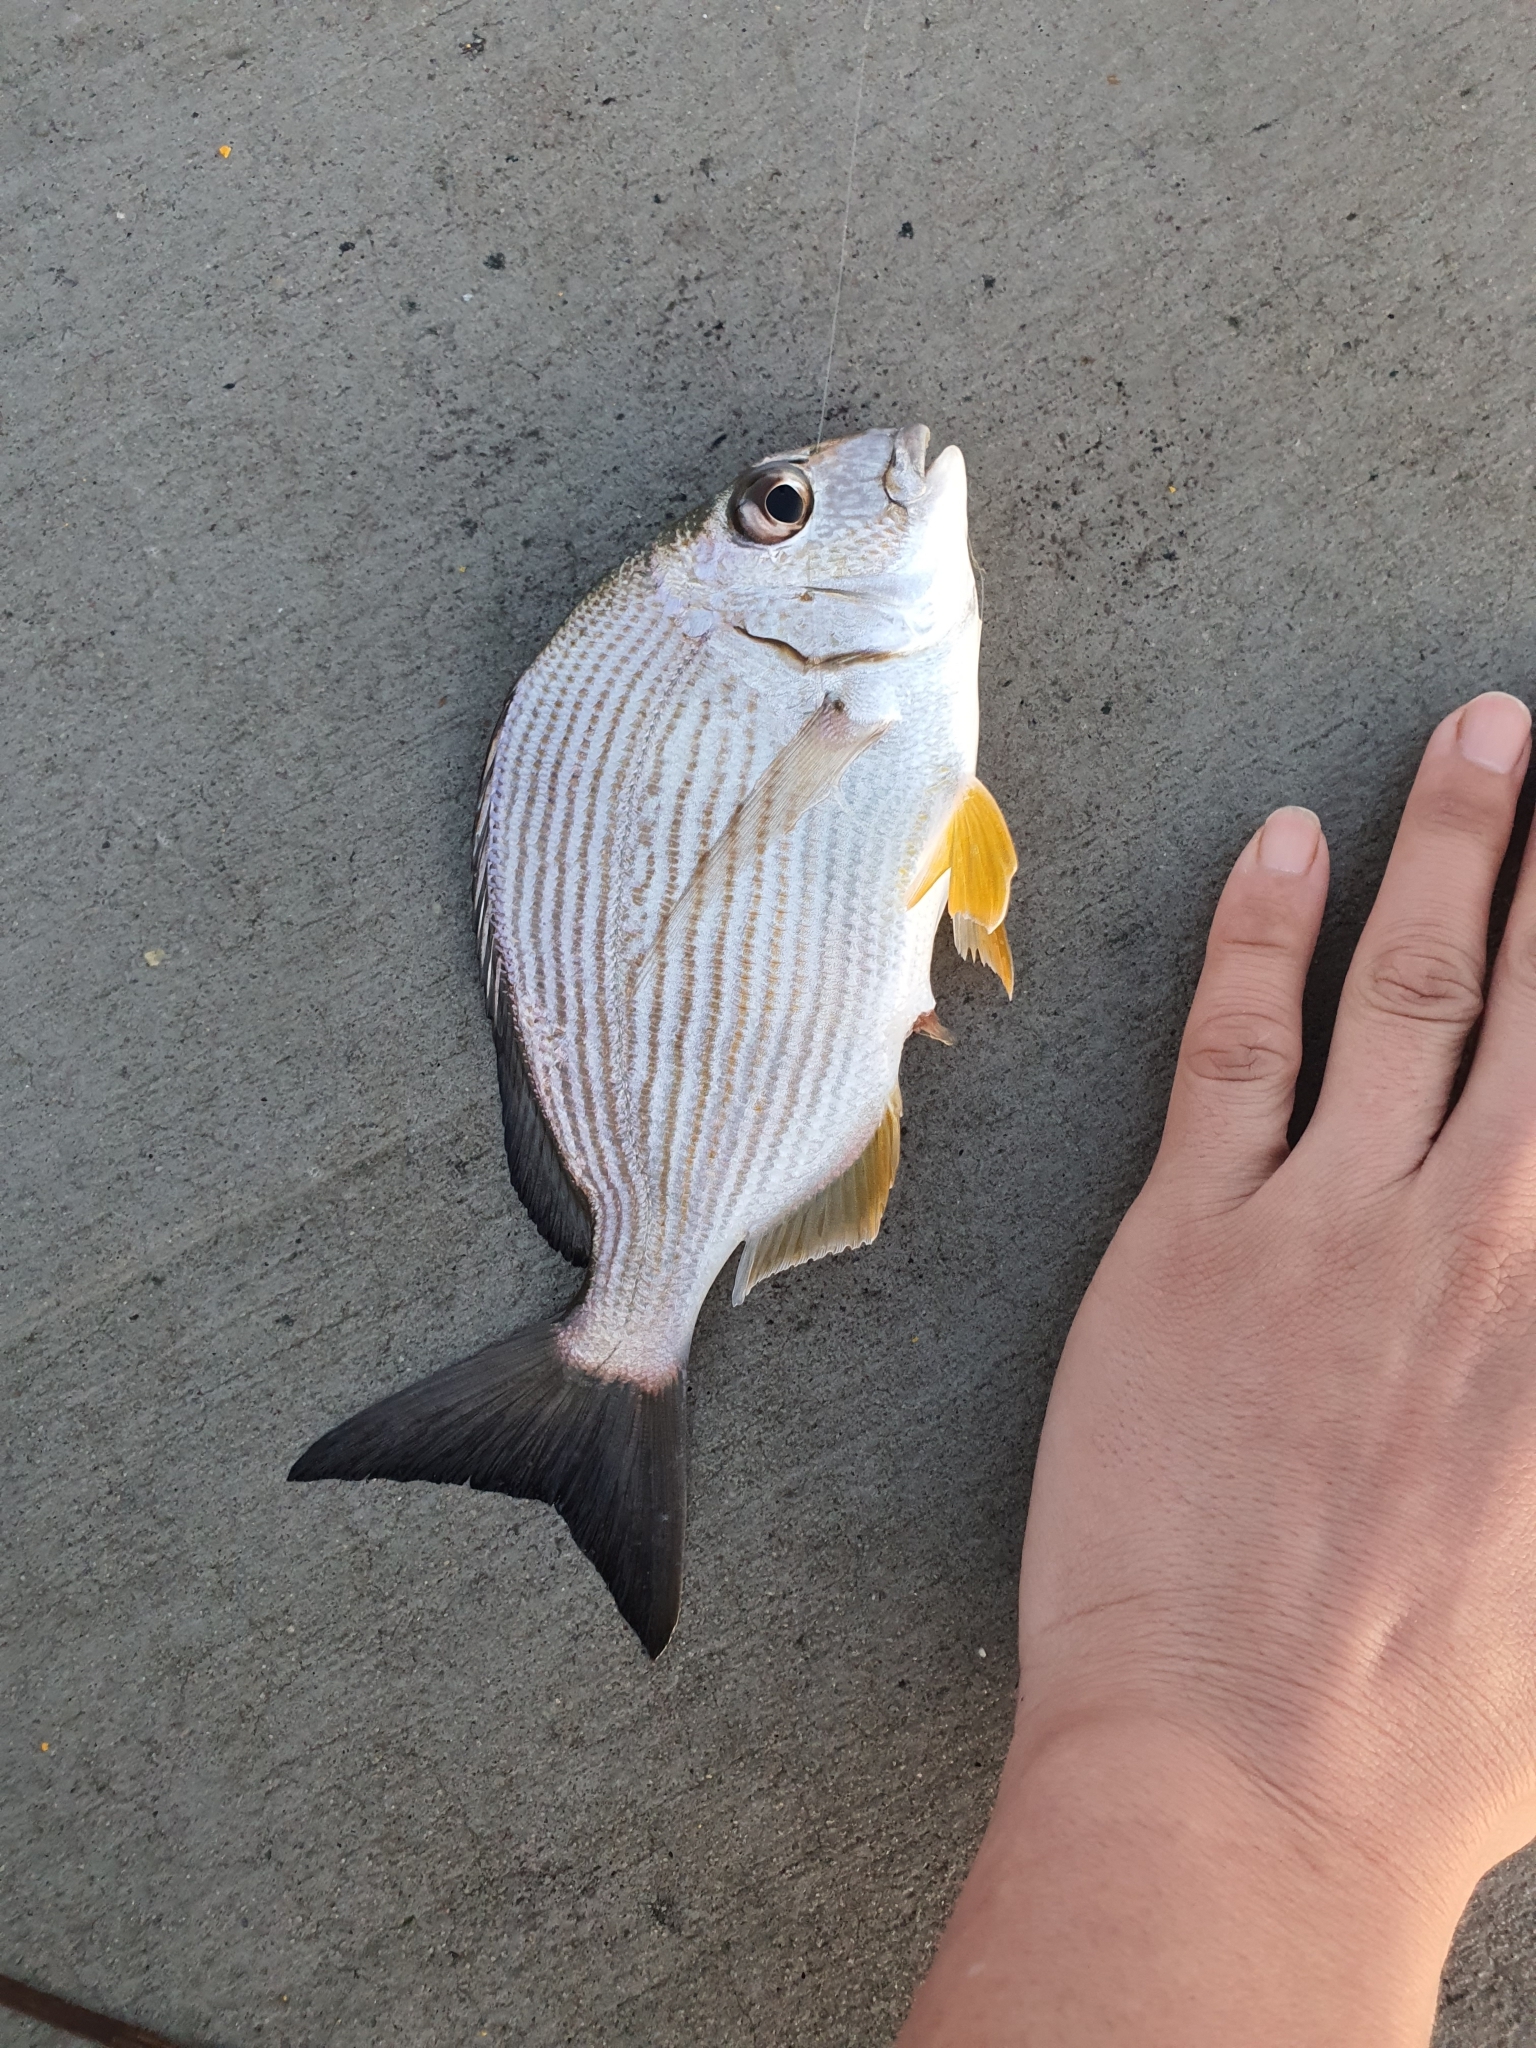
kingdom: Animalia
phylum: Chordata
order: Perciformes
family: Sparidae
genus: Rhabdosargus
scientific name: Rhabdosargus sarba
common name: Goldlined seabream
